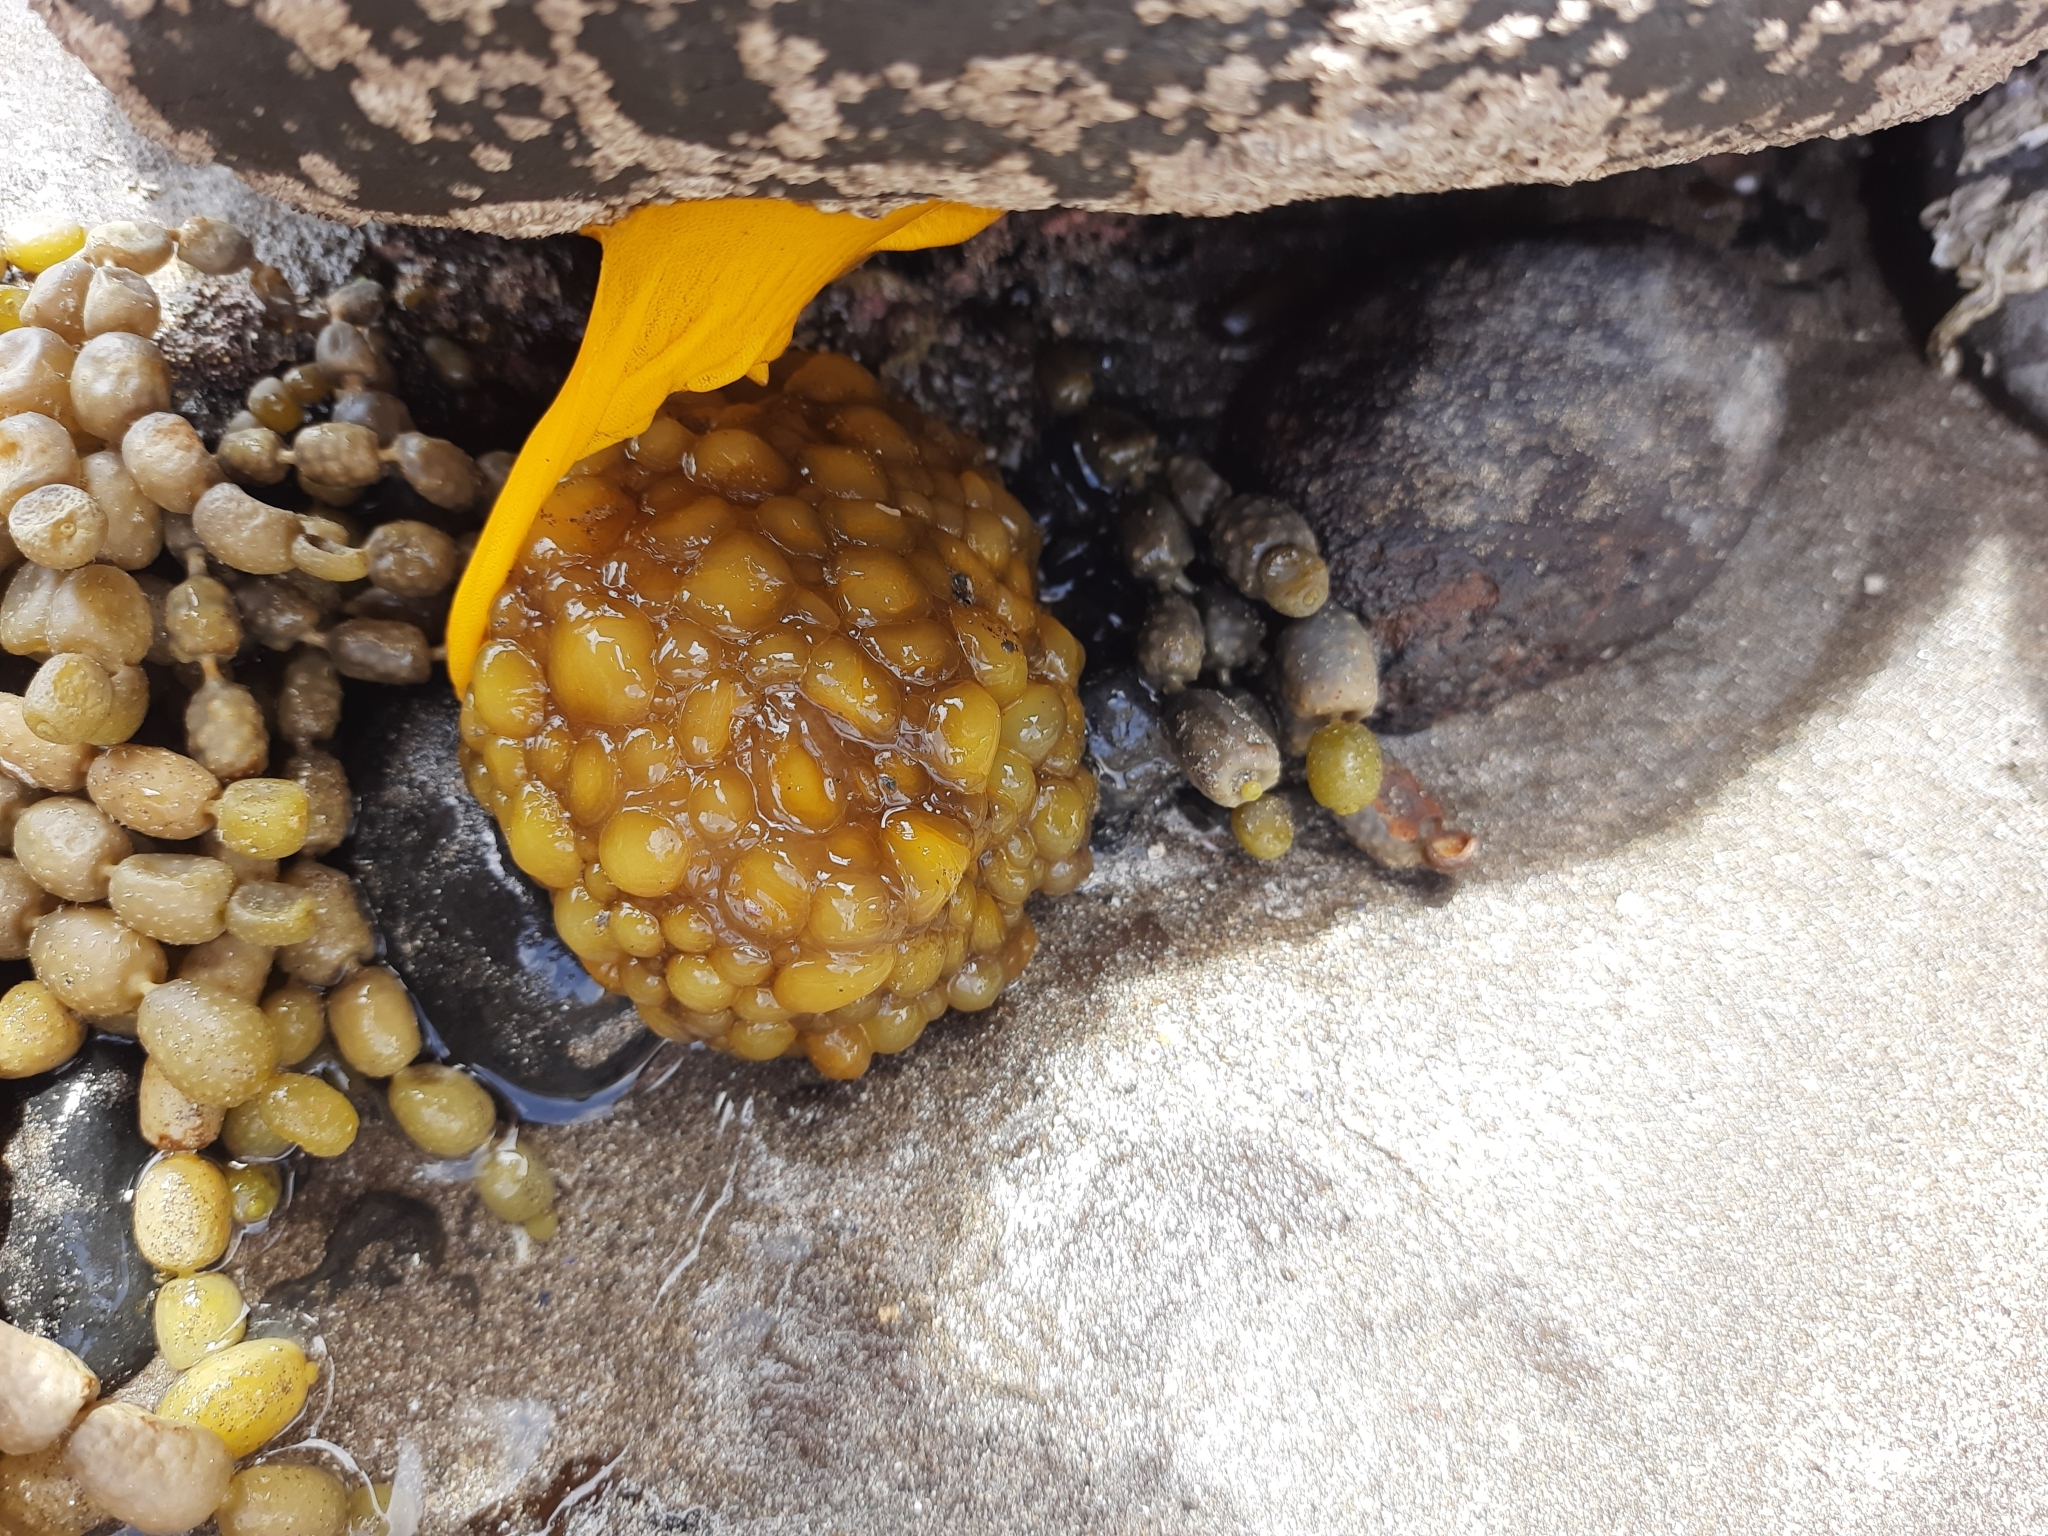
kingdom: Animalia
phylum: Mollusca
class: Gastropoda
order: Nudibranchia
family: Dorididae
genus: Doris
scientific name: Doris wellingtonensis
